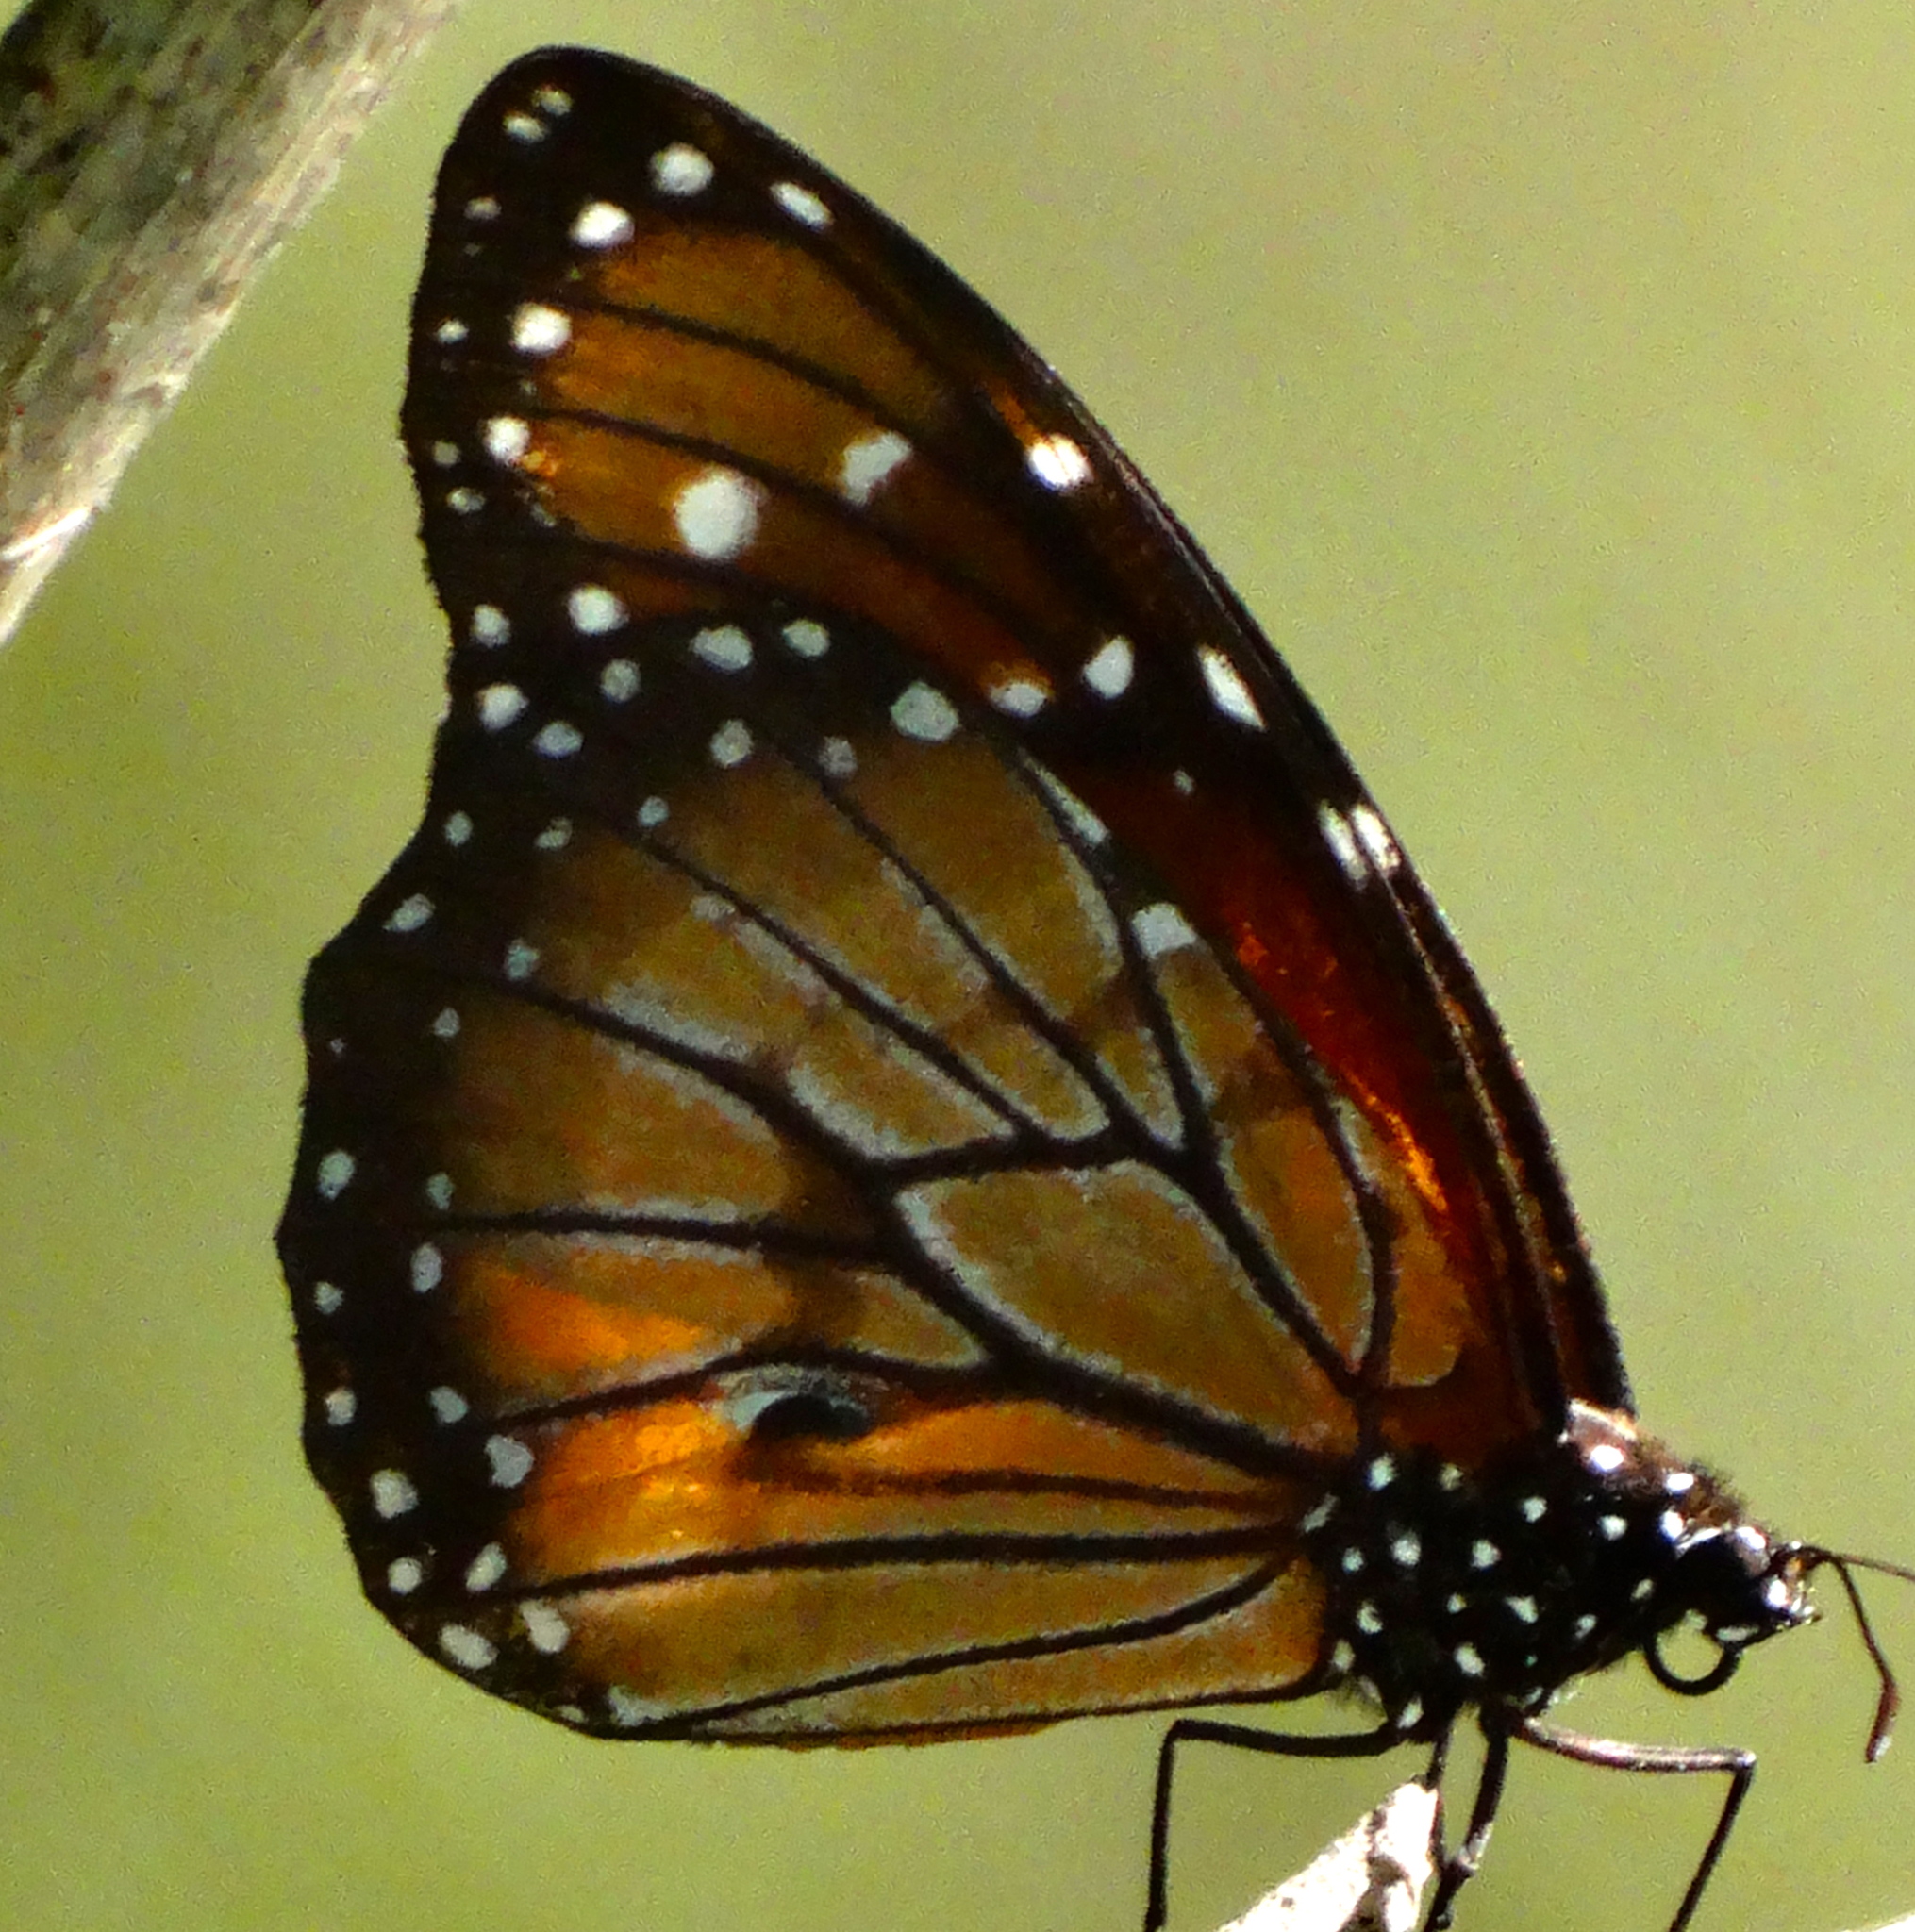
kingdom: Animalia
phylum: Arthropoda
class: Insecta
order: Lepidoptera
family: Nymphalidae
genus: Danaus
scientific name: Danaus eresimus
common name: Soldier
